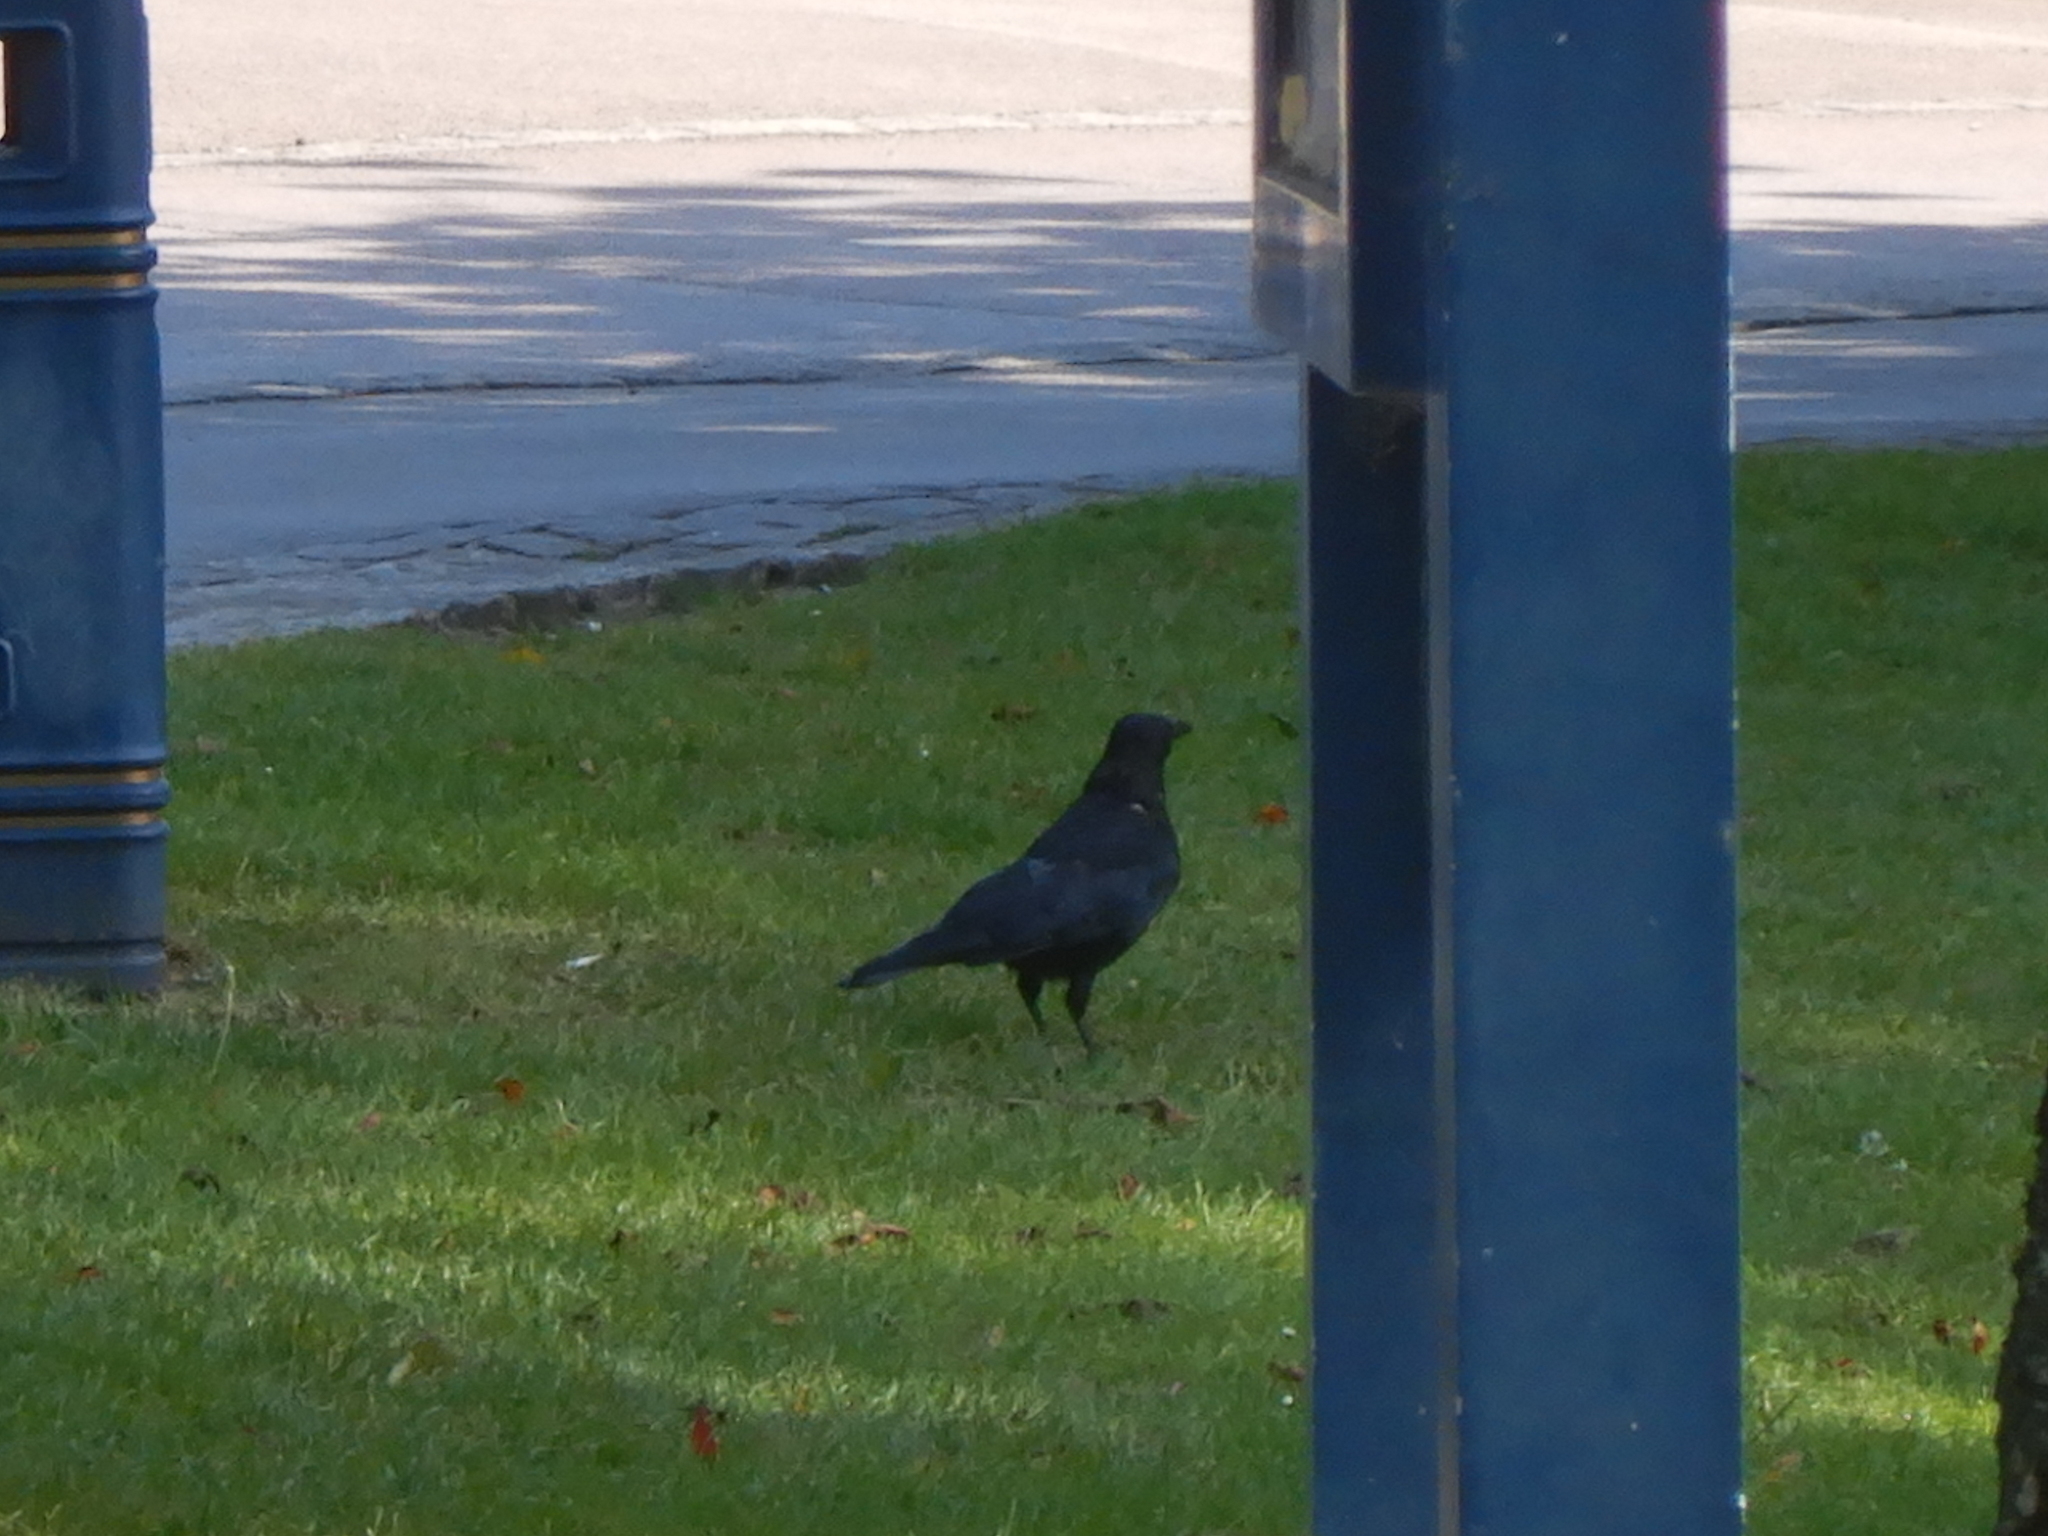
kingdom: Animalia
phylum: Chordata
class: Aves
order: Passeriformes
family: Corvidae
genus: Corvus
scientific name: Corvus corone
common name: Carrion crow
